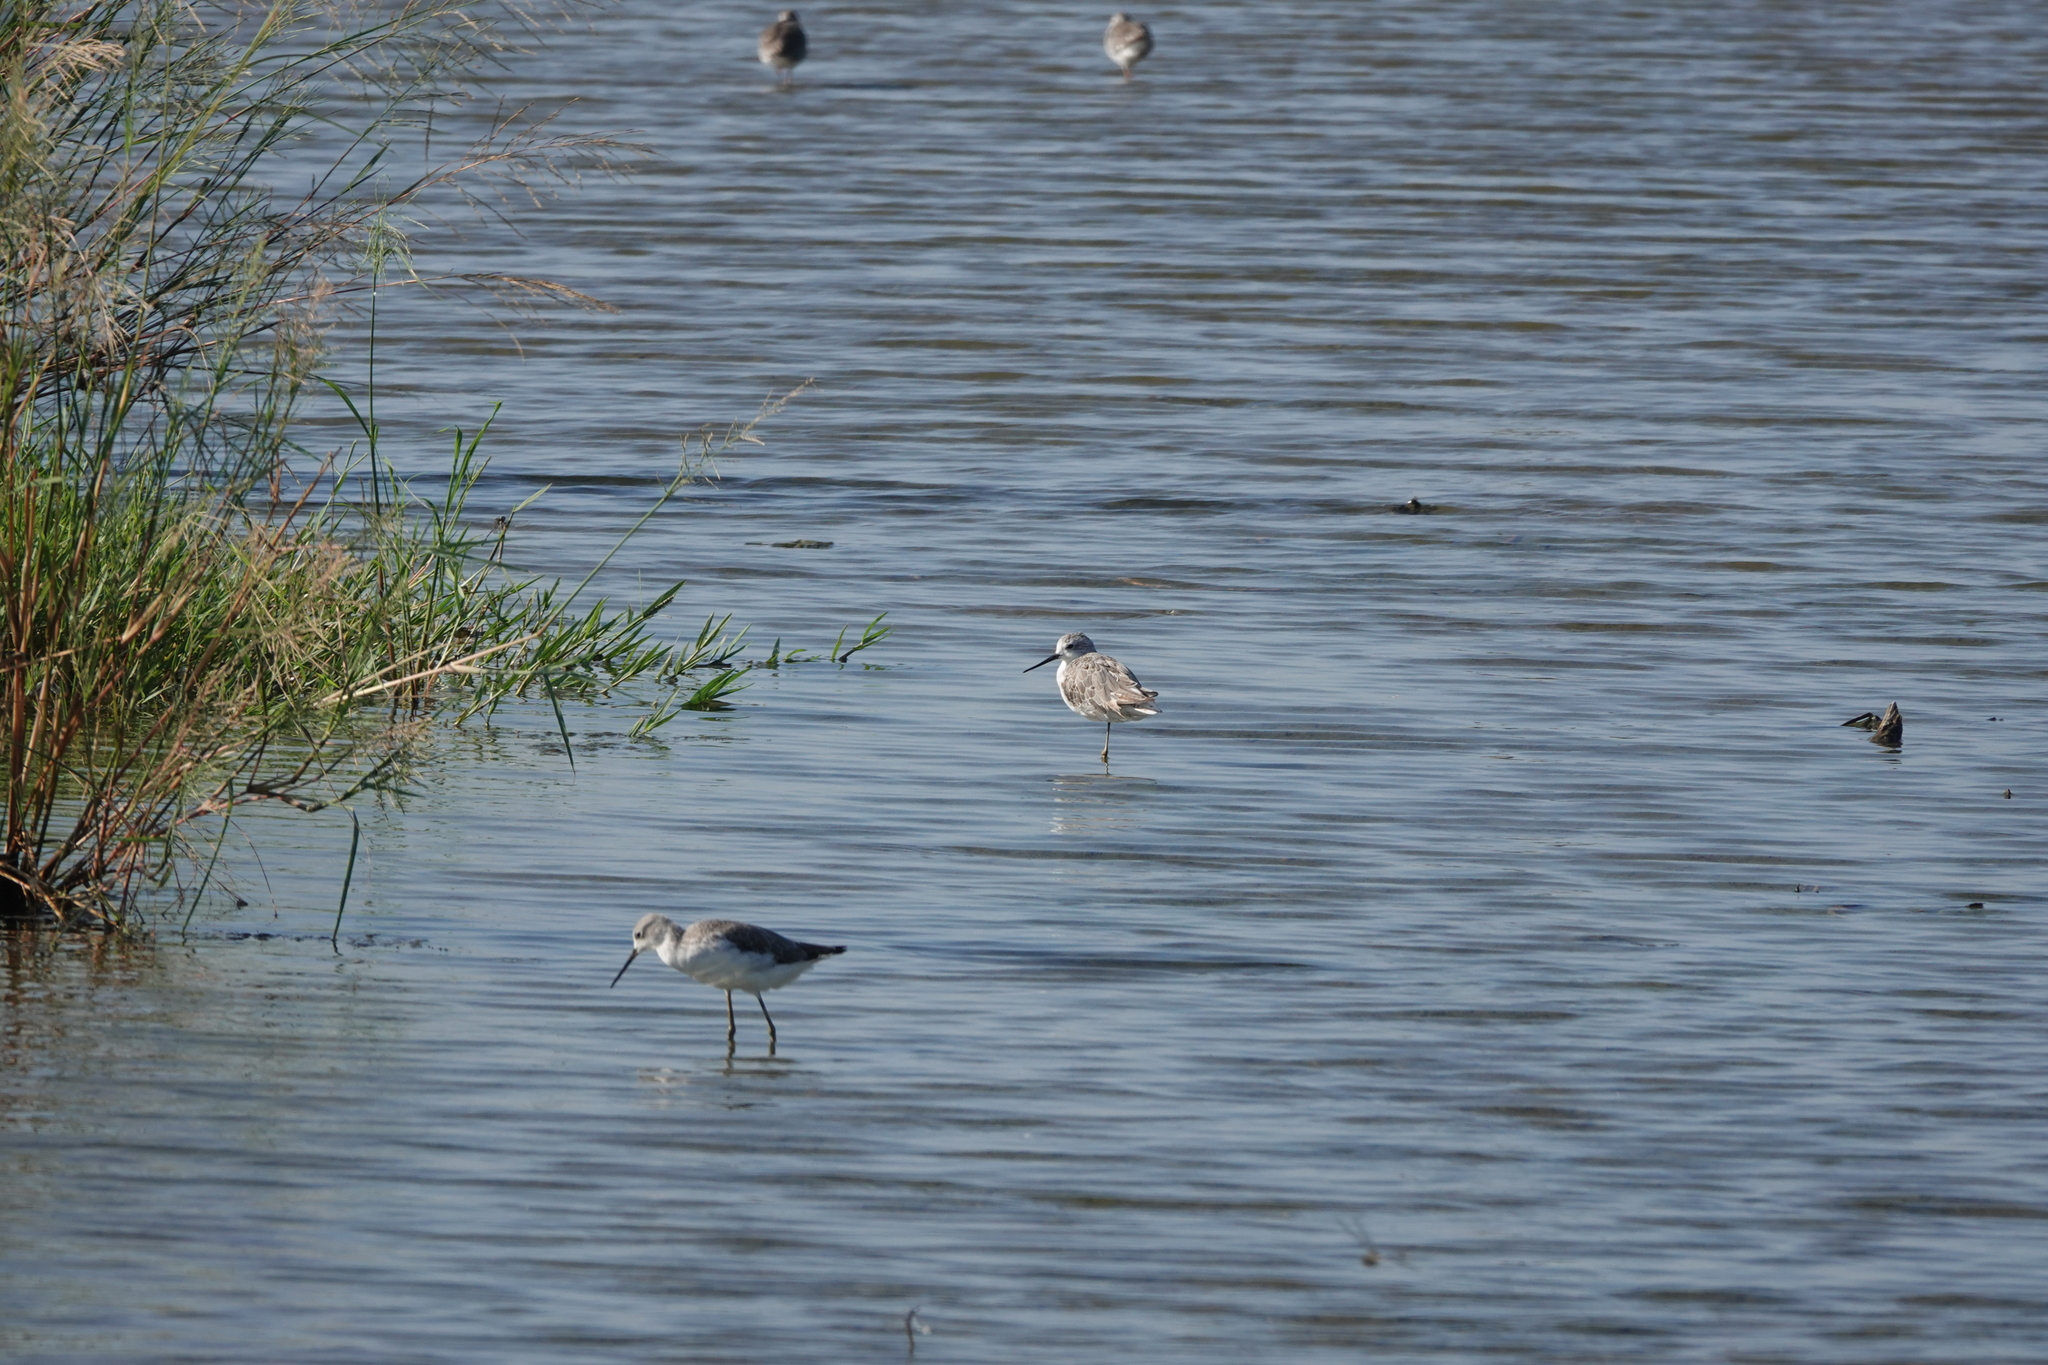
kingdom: Animalia
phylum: Chordata
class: Aves
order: Charadriiformes
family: Scolopacidae
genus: Tringa
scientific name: Tringa stagnatilis
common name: Marsh sandpiper
